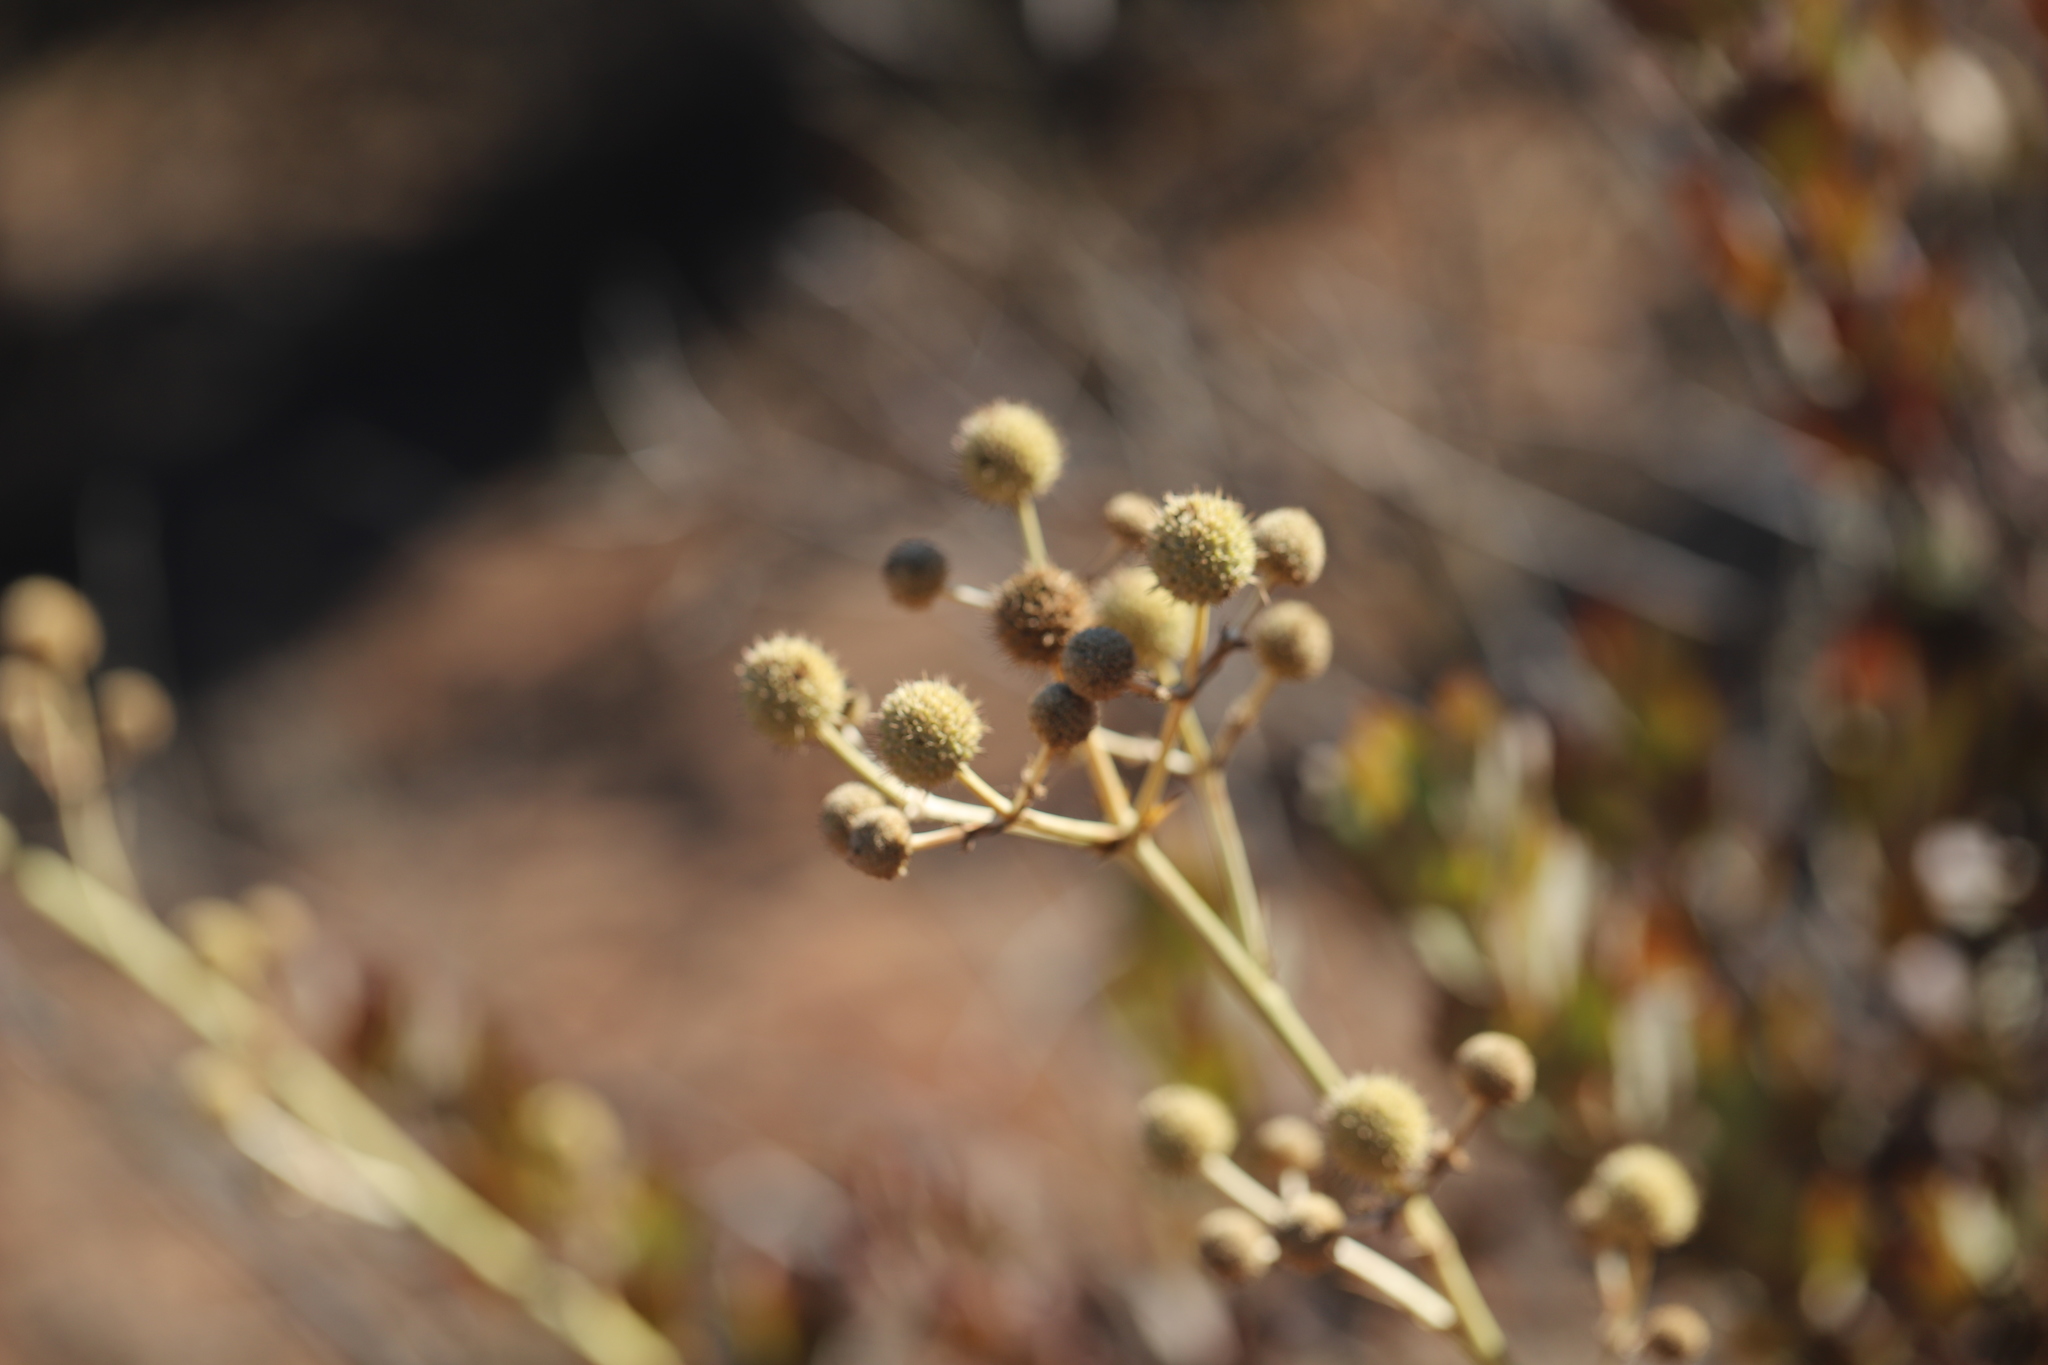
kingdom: Plantae
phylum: Tracheophyta
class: Magnoliopsida
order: Apiales
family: Apiaceae
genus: Eryngium
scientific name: Eryngium humboldtii
